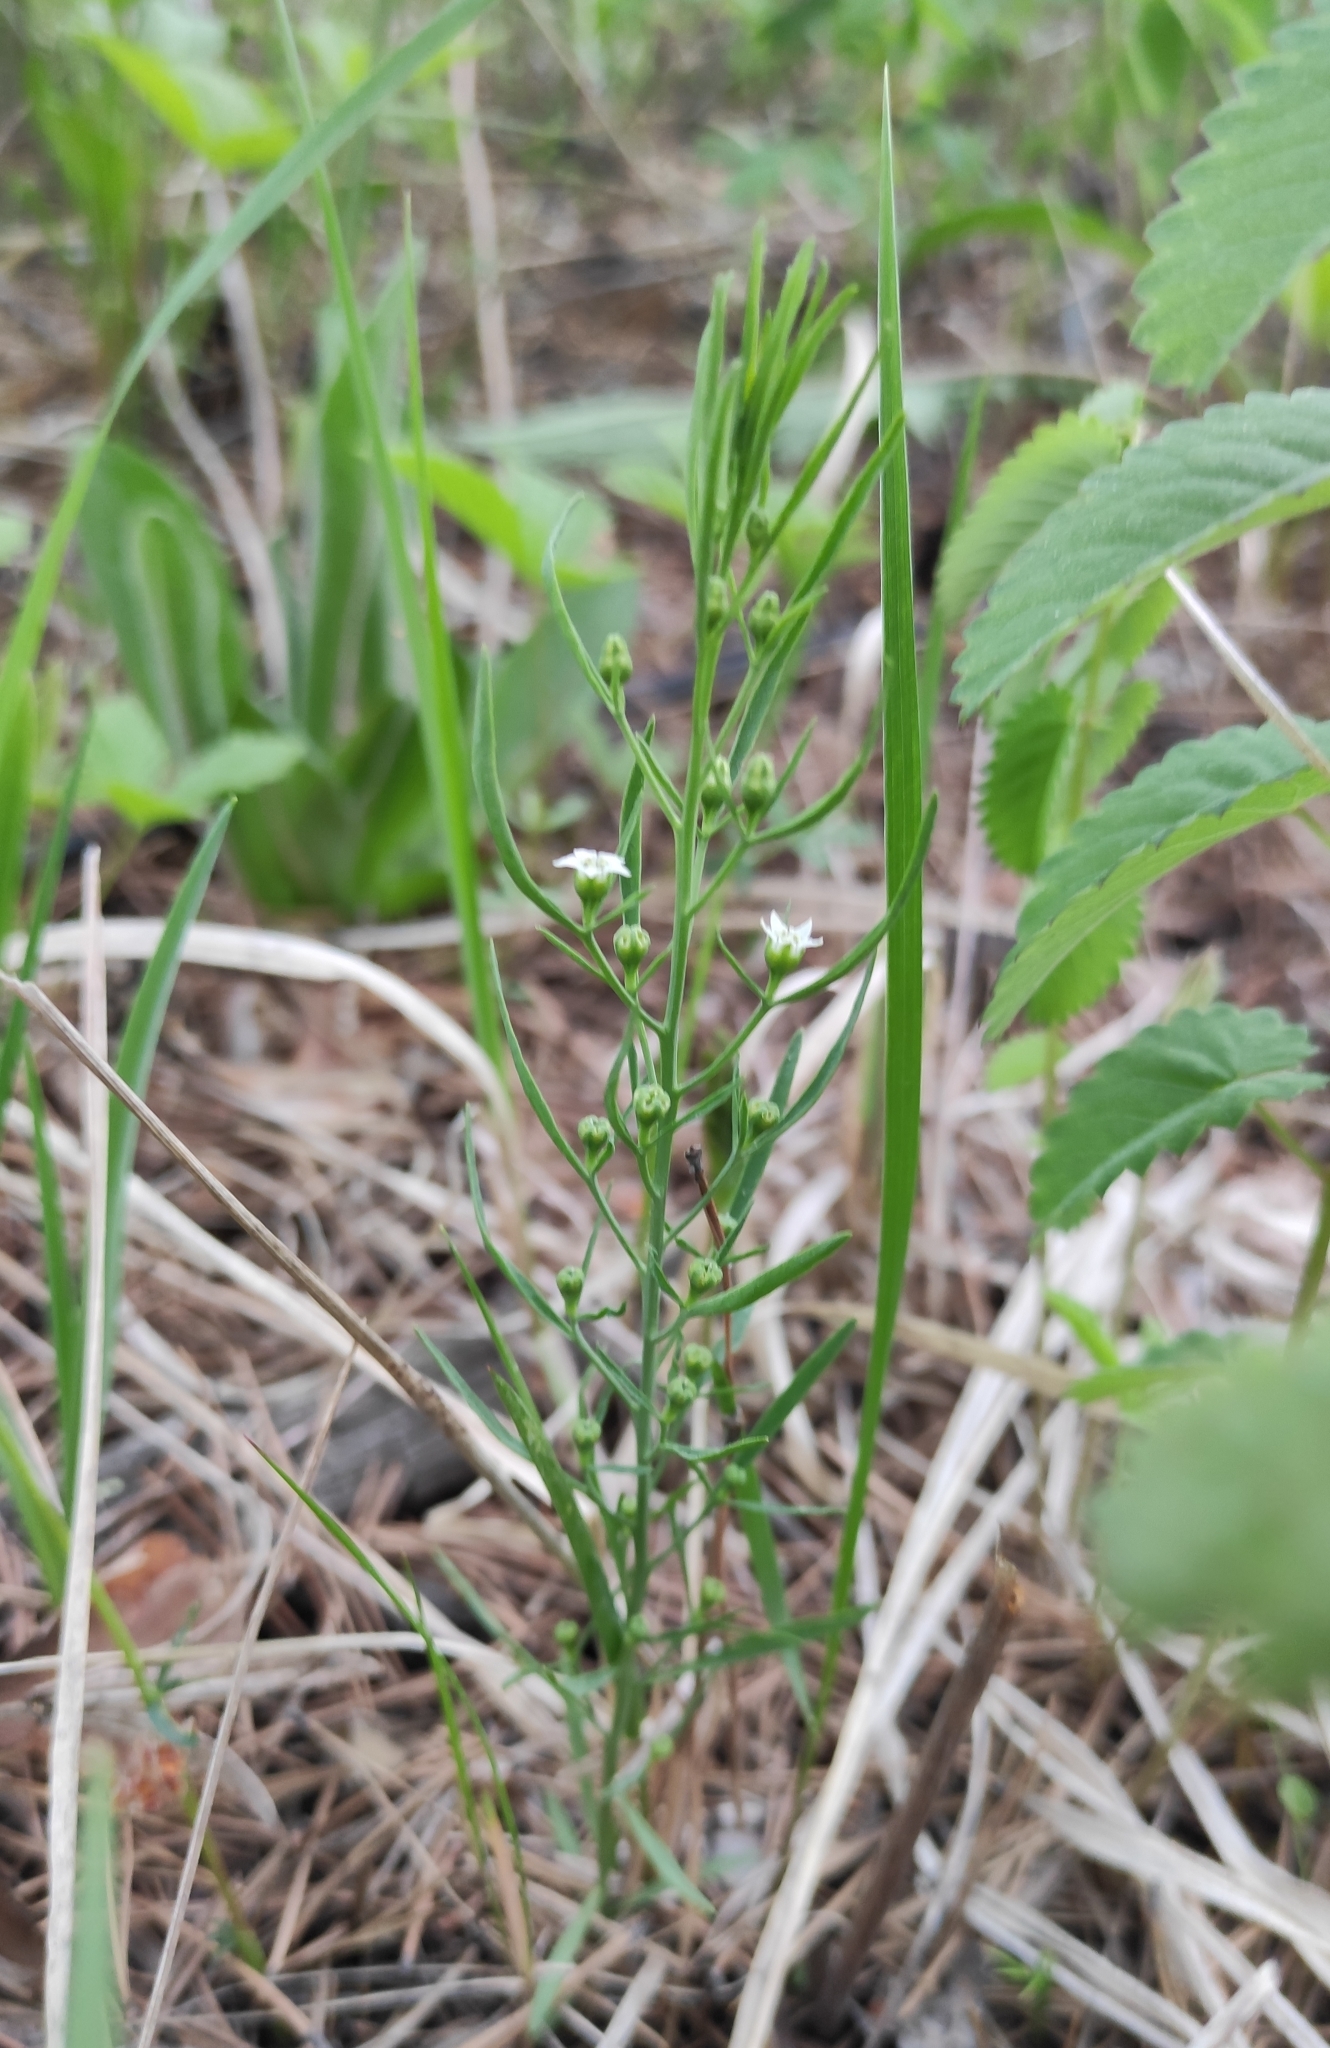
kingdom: Plantae
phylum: Tracheophyta
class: Magnoliopsida
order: Santalales
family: Thesiaceae
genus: Thesium
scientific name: Thesium repens
